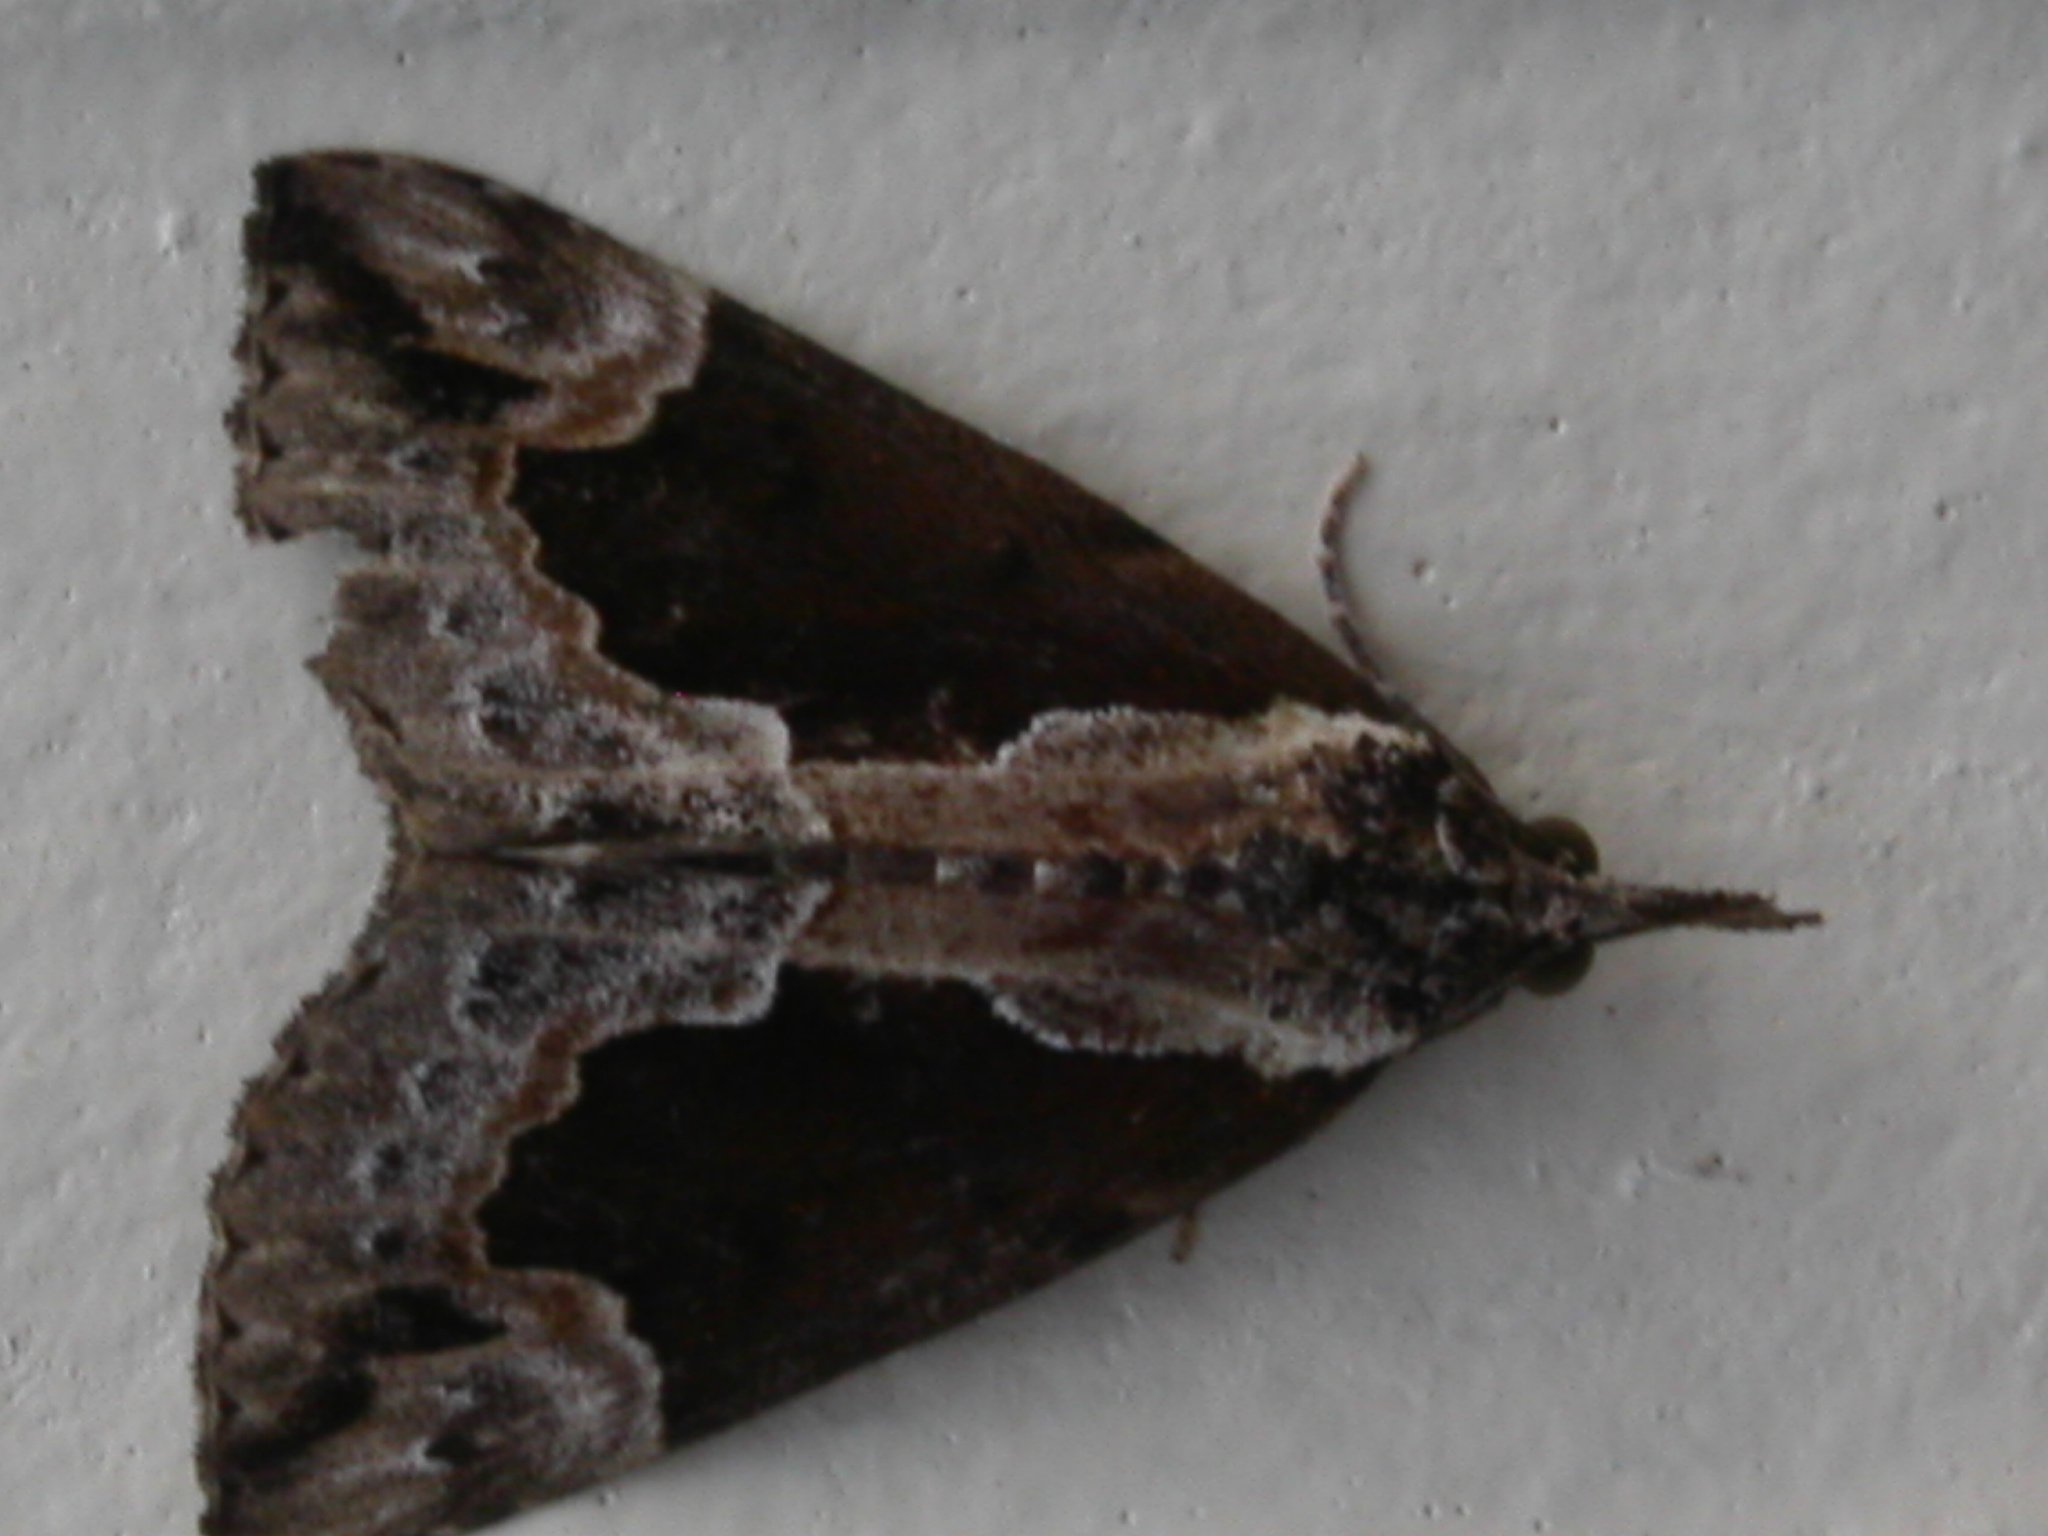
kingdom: Animalia
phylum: Arthropoda
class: Insecta
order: Lepidoptera
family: Erebidae
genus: Hypena
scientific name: Hypena baltimoralis
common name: Baltimore snout
